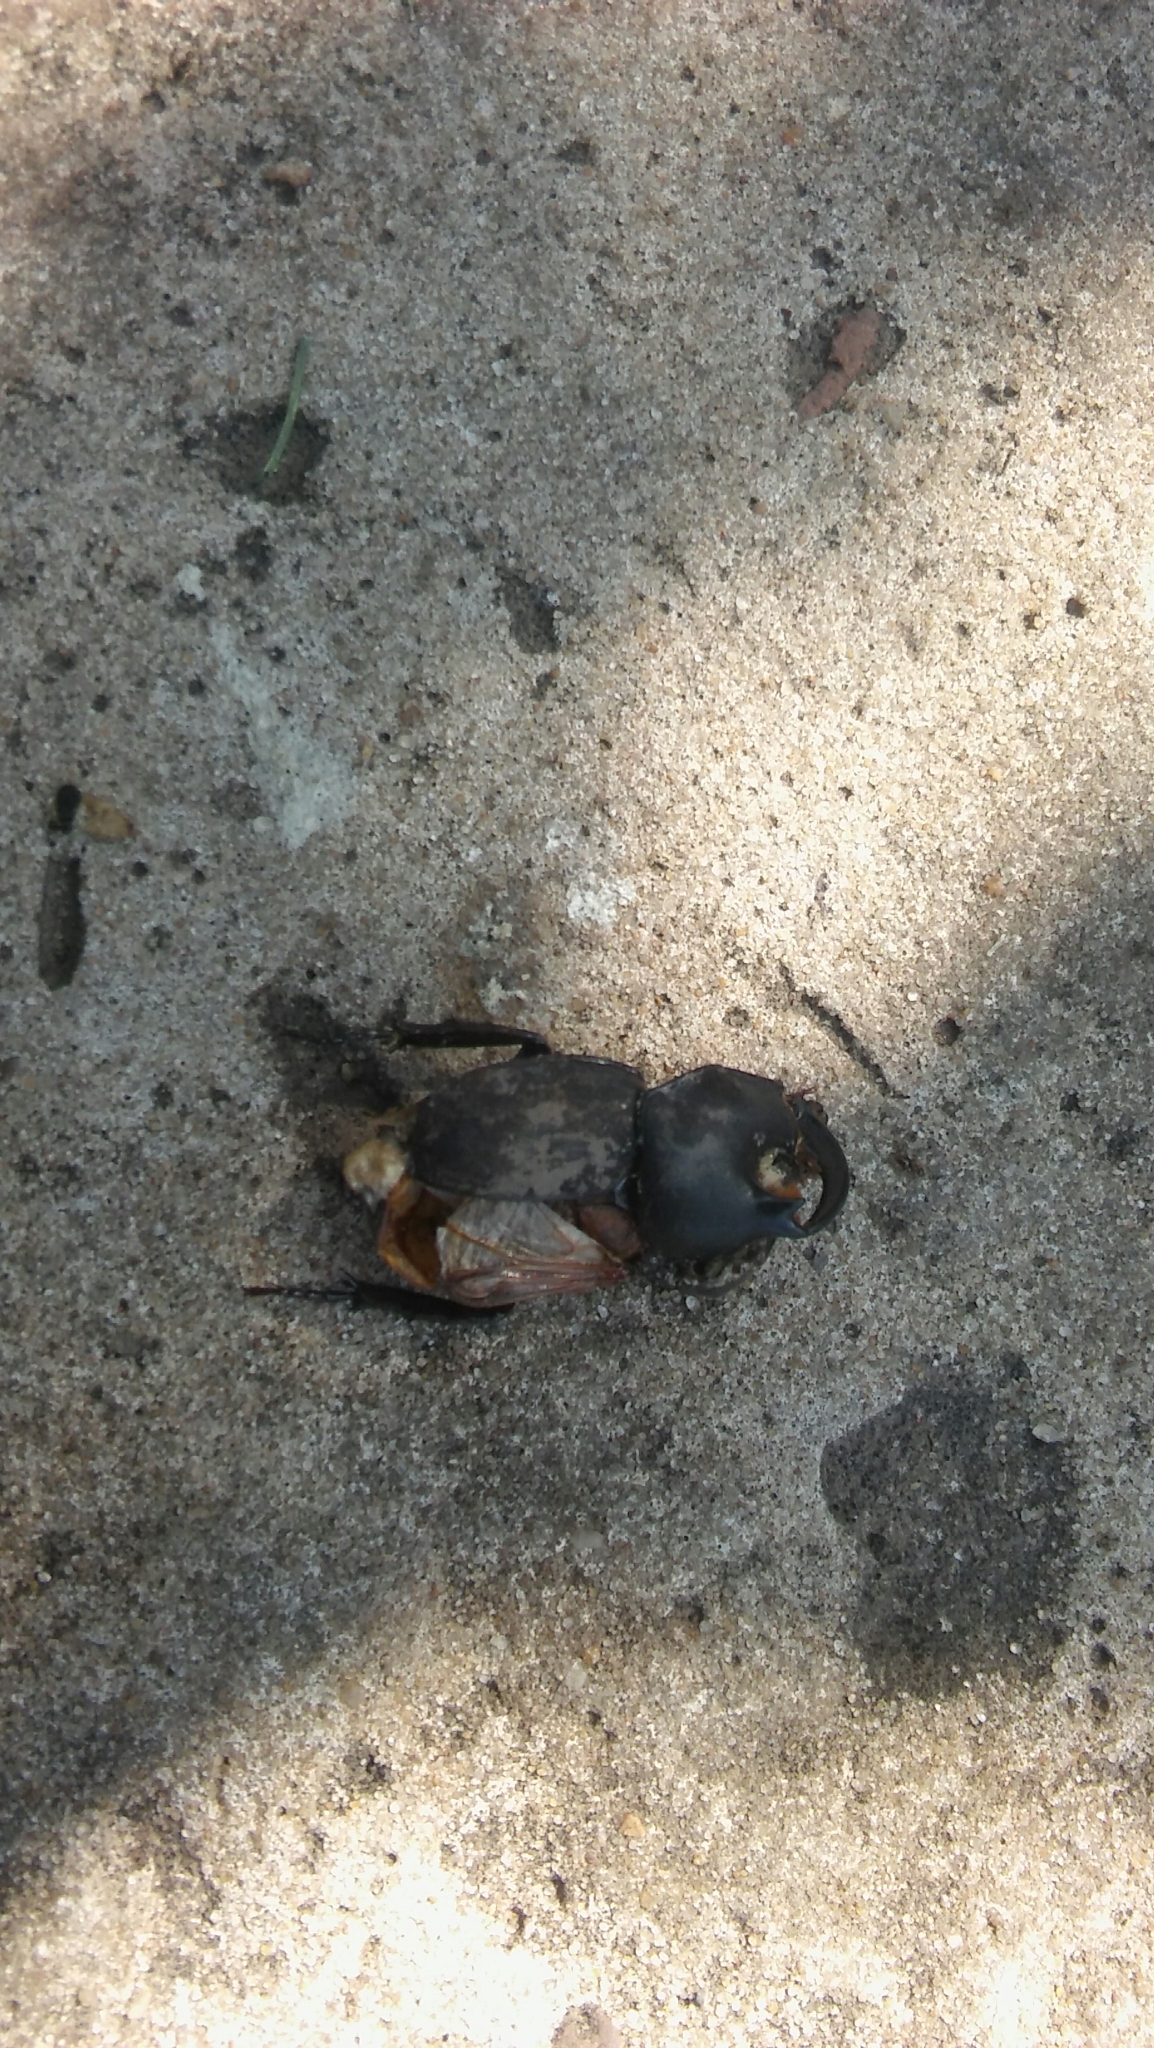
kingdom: Animalia
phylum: Arthropoda
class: Insecta
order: Coleoptera
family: Scarabaeidae
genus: Diloboderus
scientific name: Diloboderus abderus
